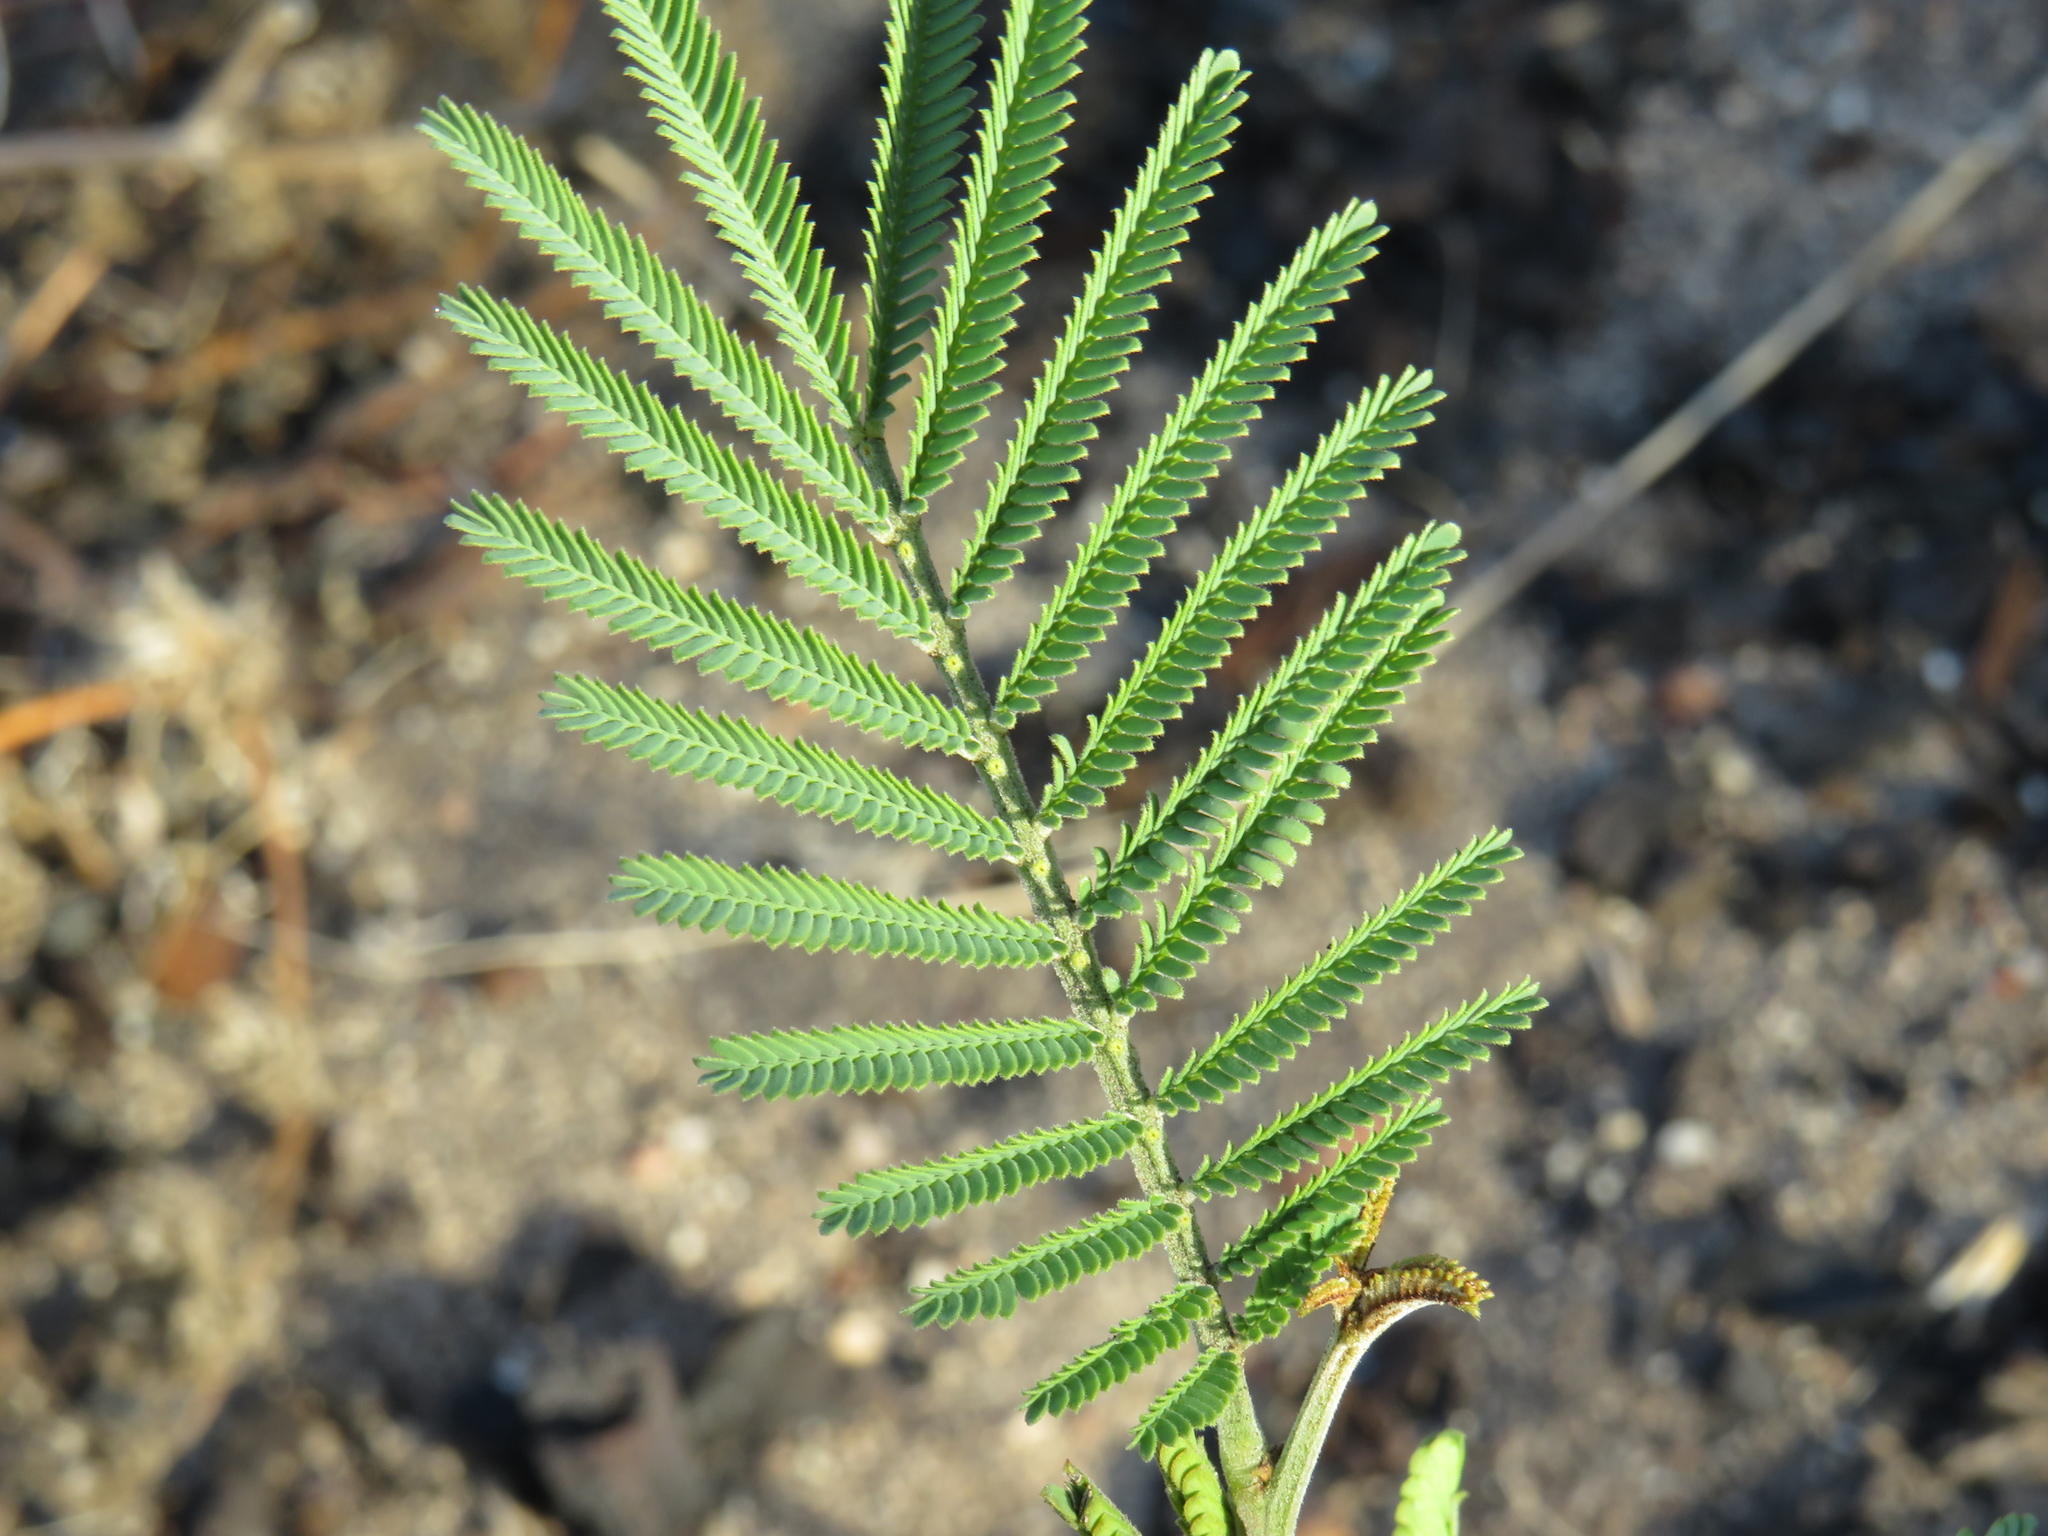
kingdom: Plantae
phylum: Tracheophyta
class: Magnoliopsida
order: Fabales
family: Fabaceae
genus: Acacia
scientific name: Acacia mearnsii
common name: Black wattle
